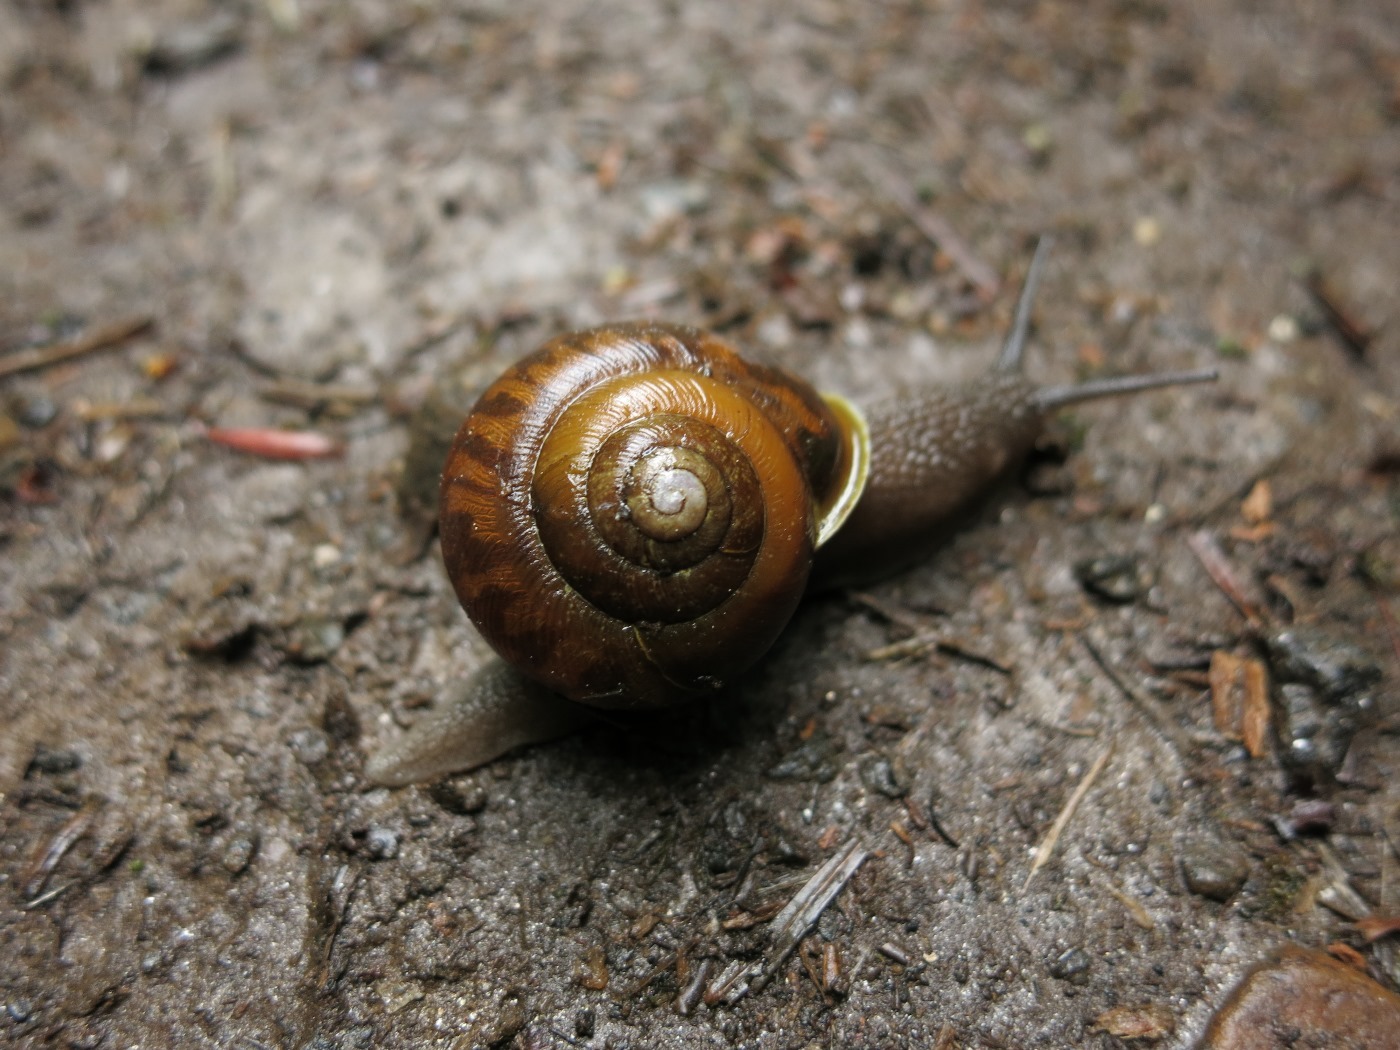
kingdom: Animalia
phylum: Mollusca
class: Gastropoda
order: Stylommatophora
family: Polygyridae
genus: Mesodon
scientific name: Mesodon andrewsae
